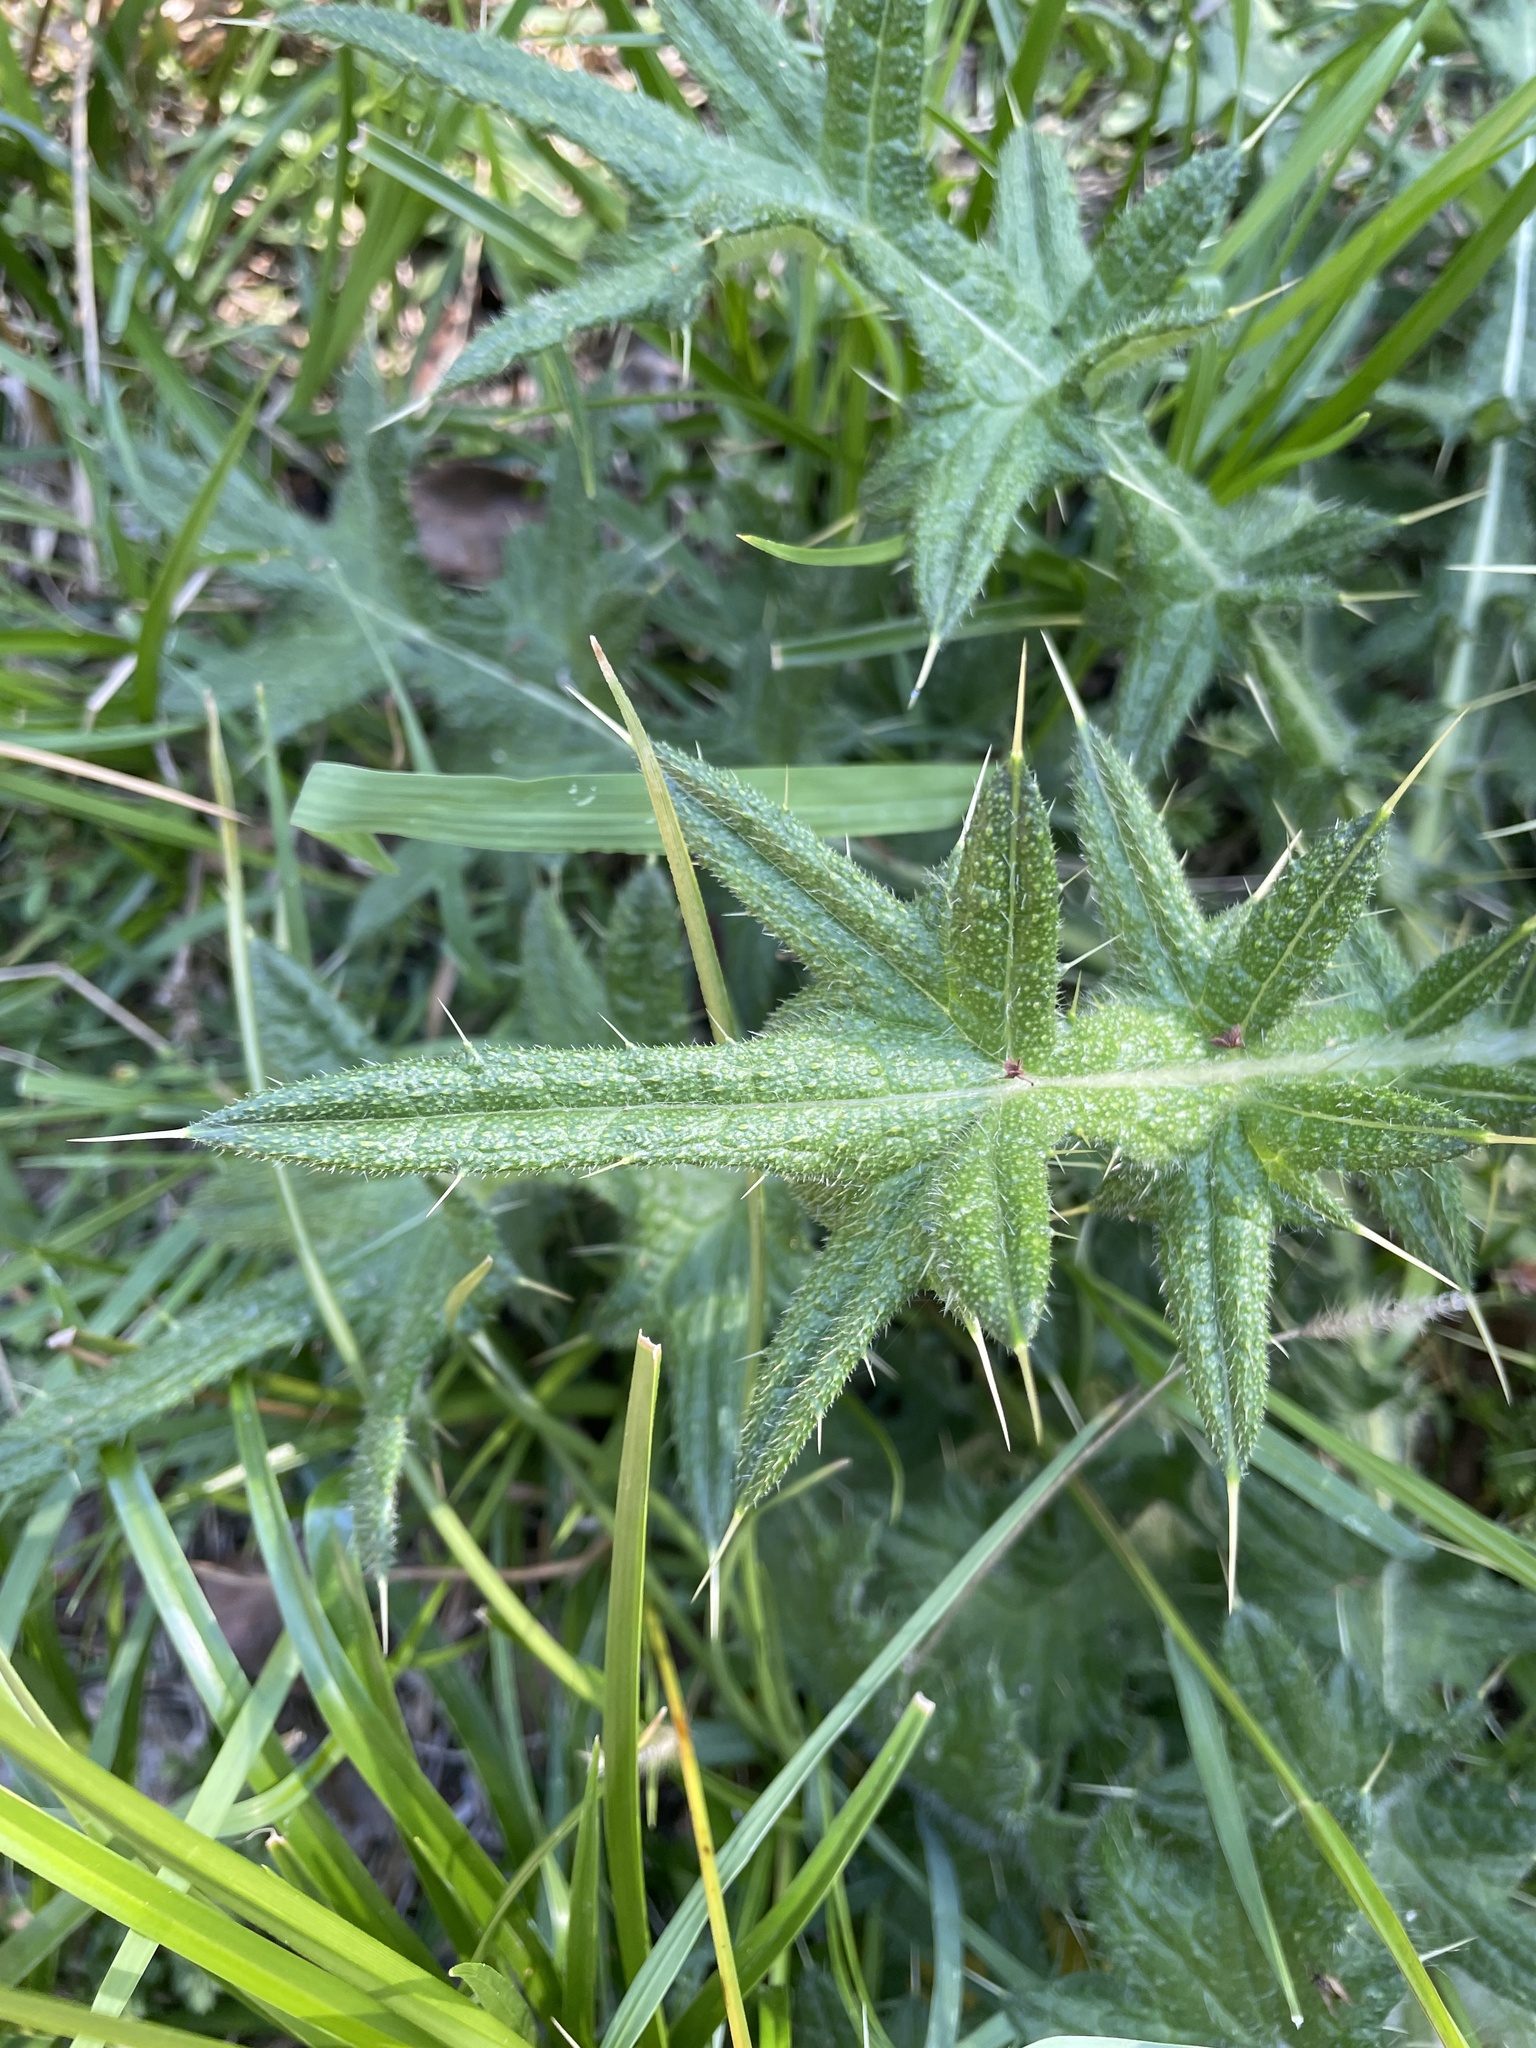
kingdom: Plantae
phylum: Tracheophyta
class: Magnoliopsida
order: Asterales
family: Asteraceae
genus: Cirsium
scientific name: Cirsium vulgare
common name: Bull thistle
